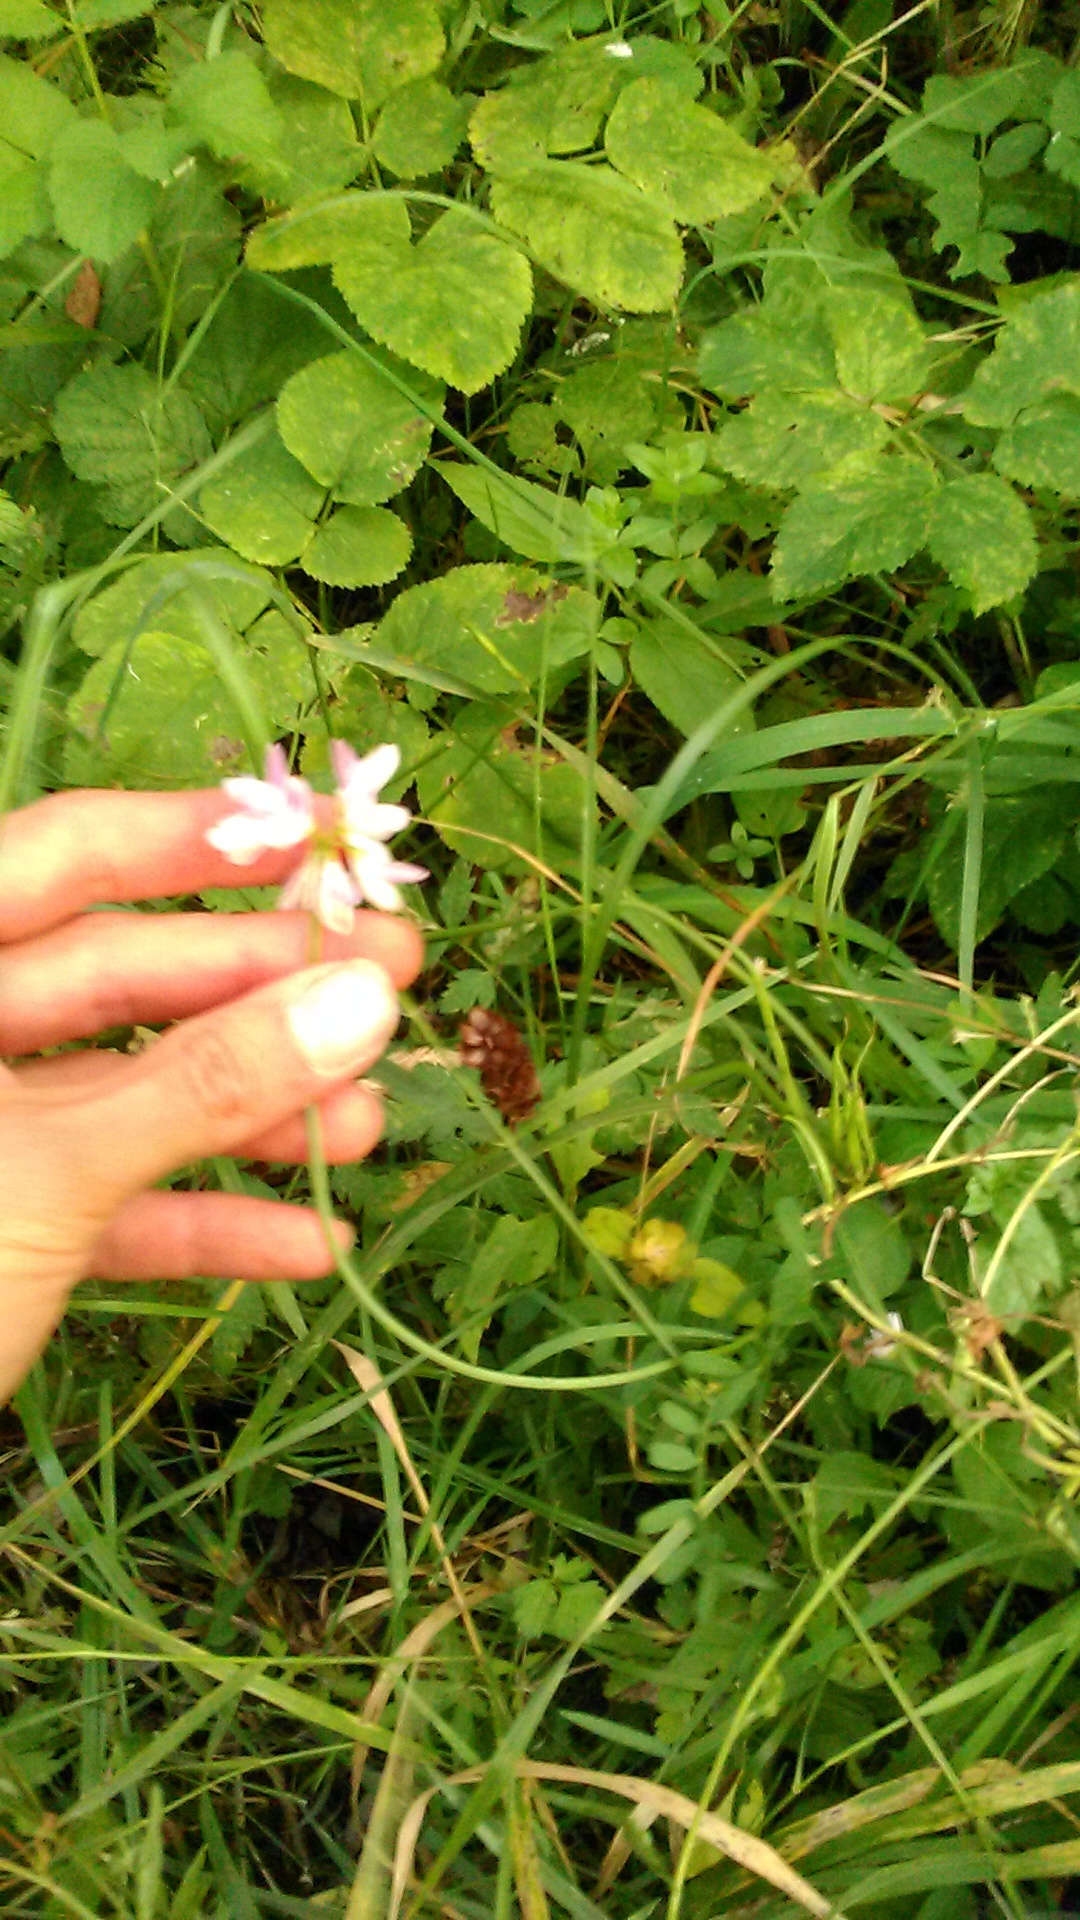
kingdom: Plantae
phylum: Tracheophyta
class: Magnoliopsida
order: Fabales
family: Fabaceae
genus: Coronilla
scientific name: Coronilla varia
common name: Crownvetch
